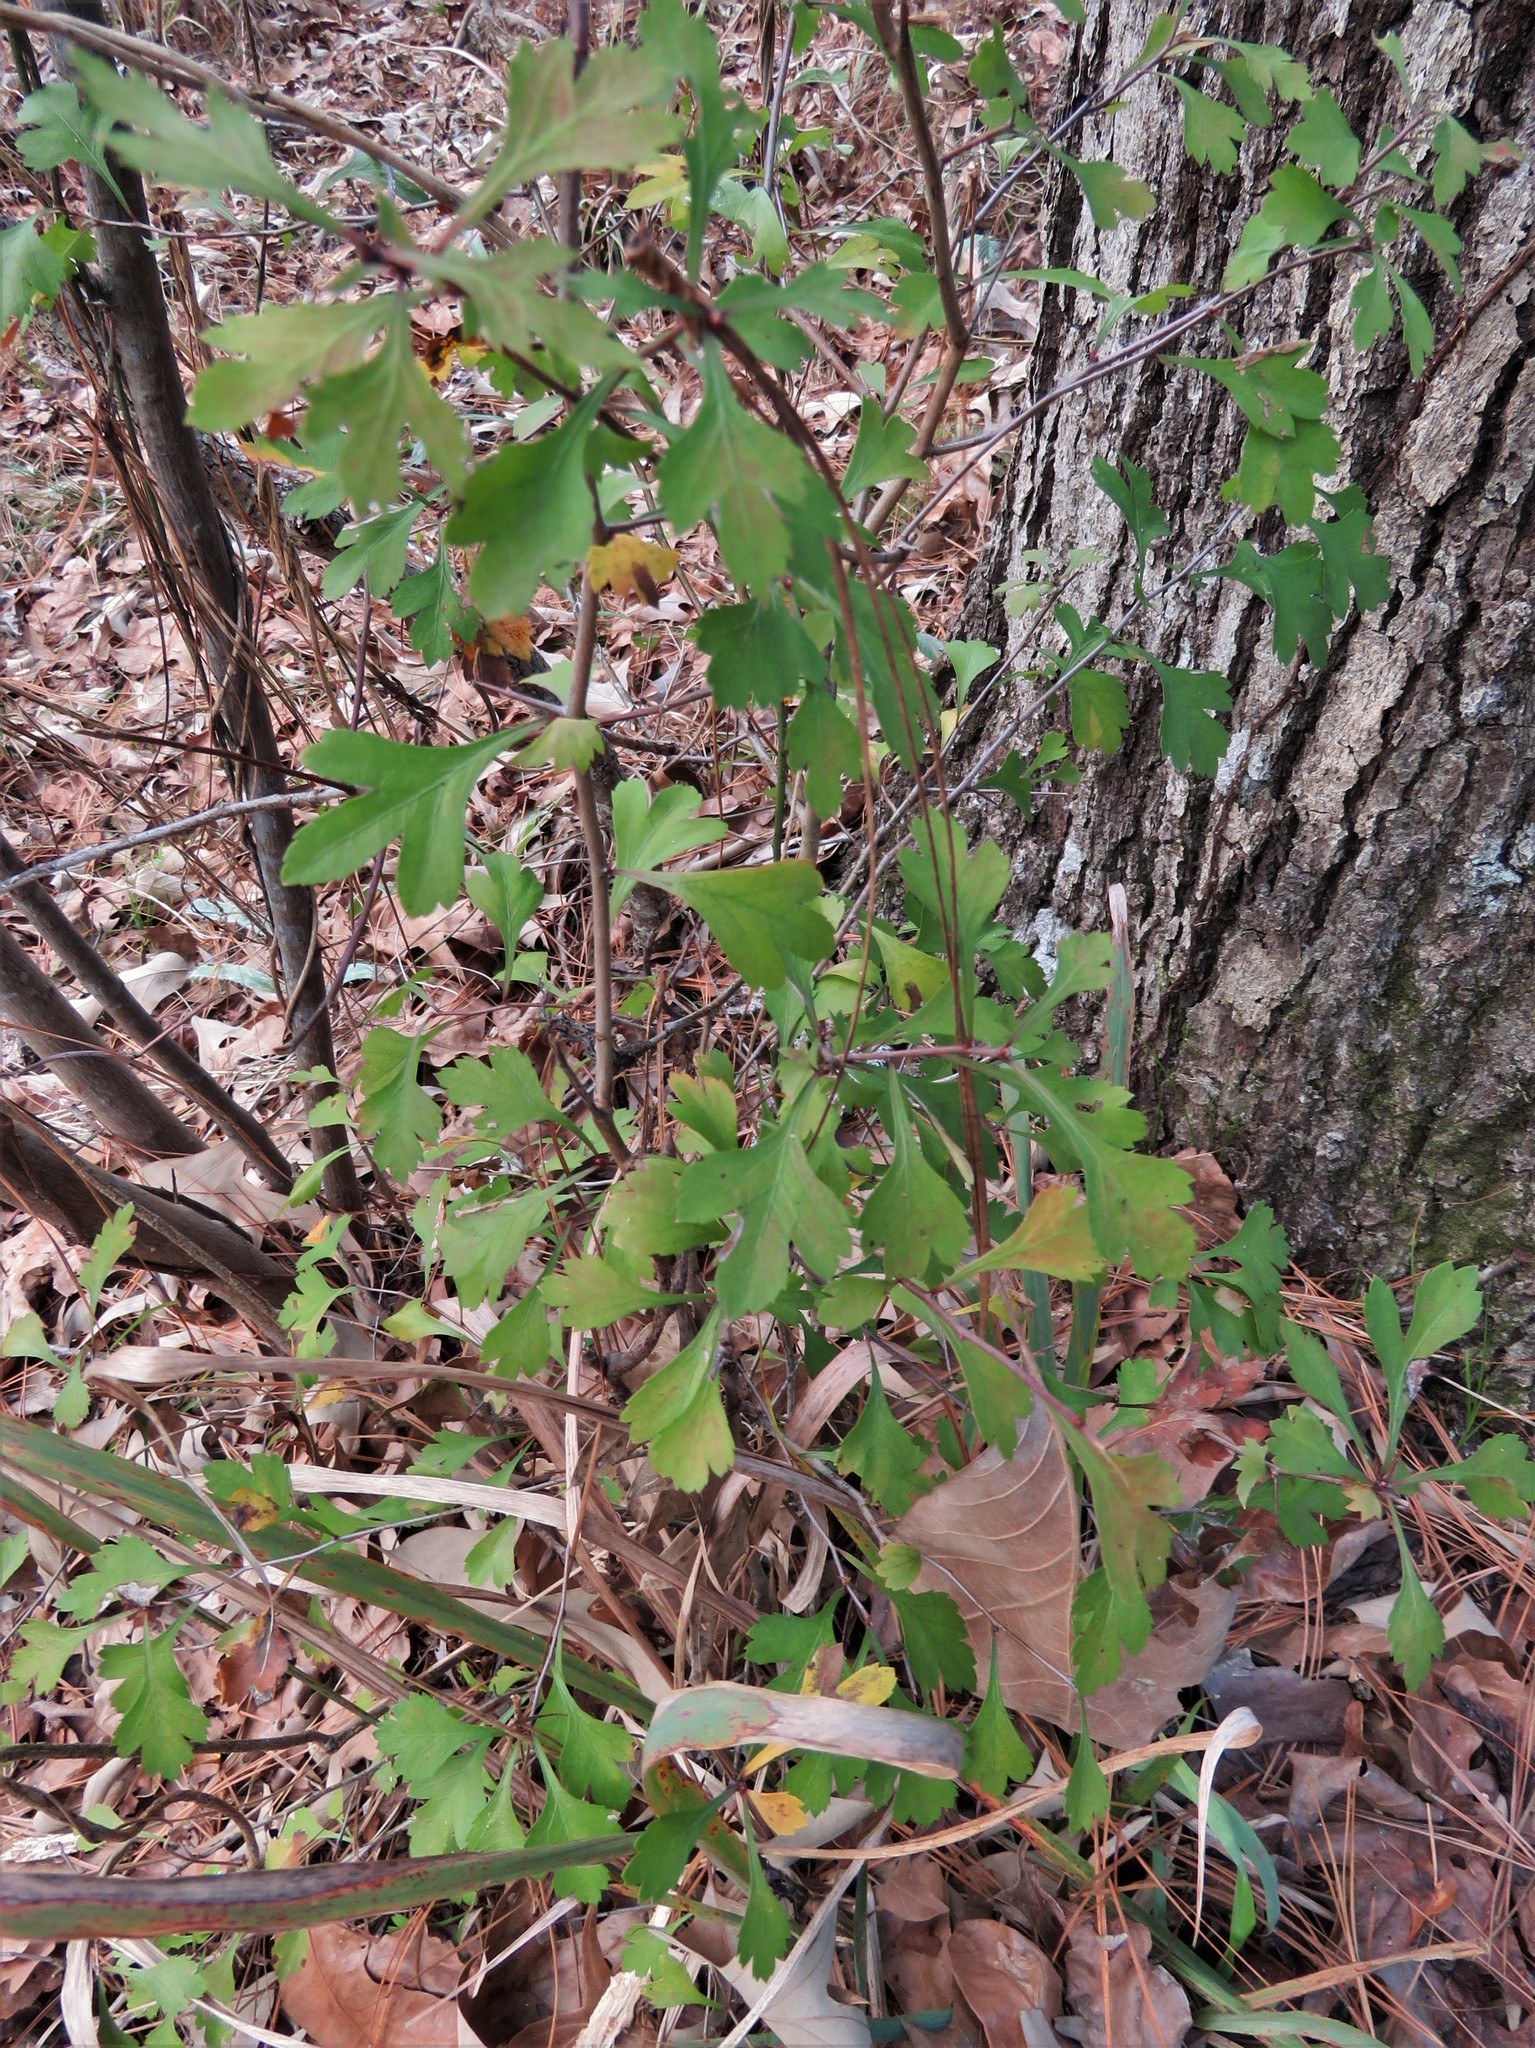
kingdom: Plantae
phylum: Tracheophyta
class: Magnoliopsida
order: Rosales
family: Rosaceae
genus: Crataegus
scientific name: Crataegus spathulata
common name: Littlehip hawthorn
